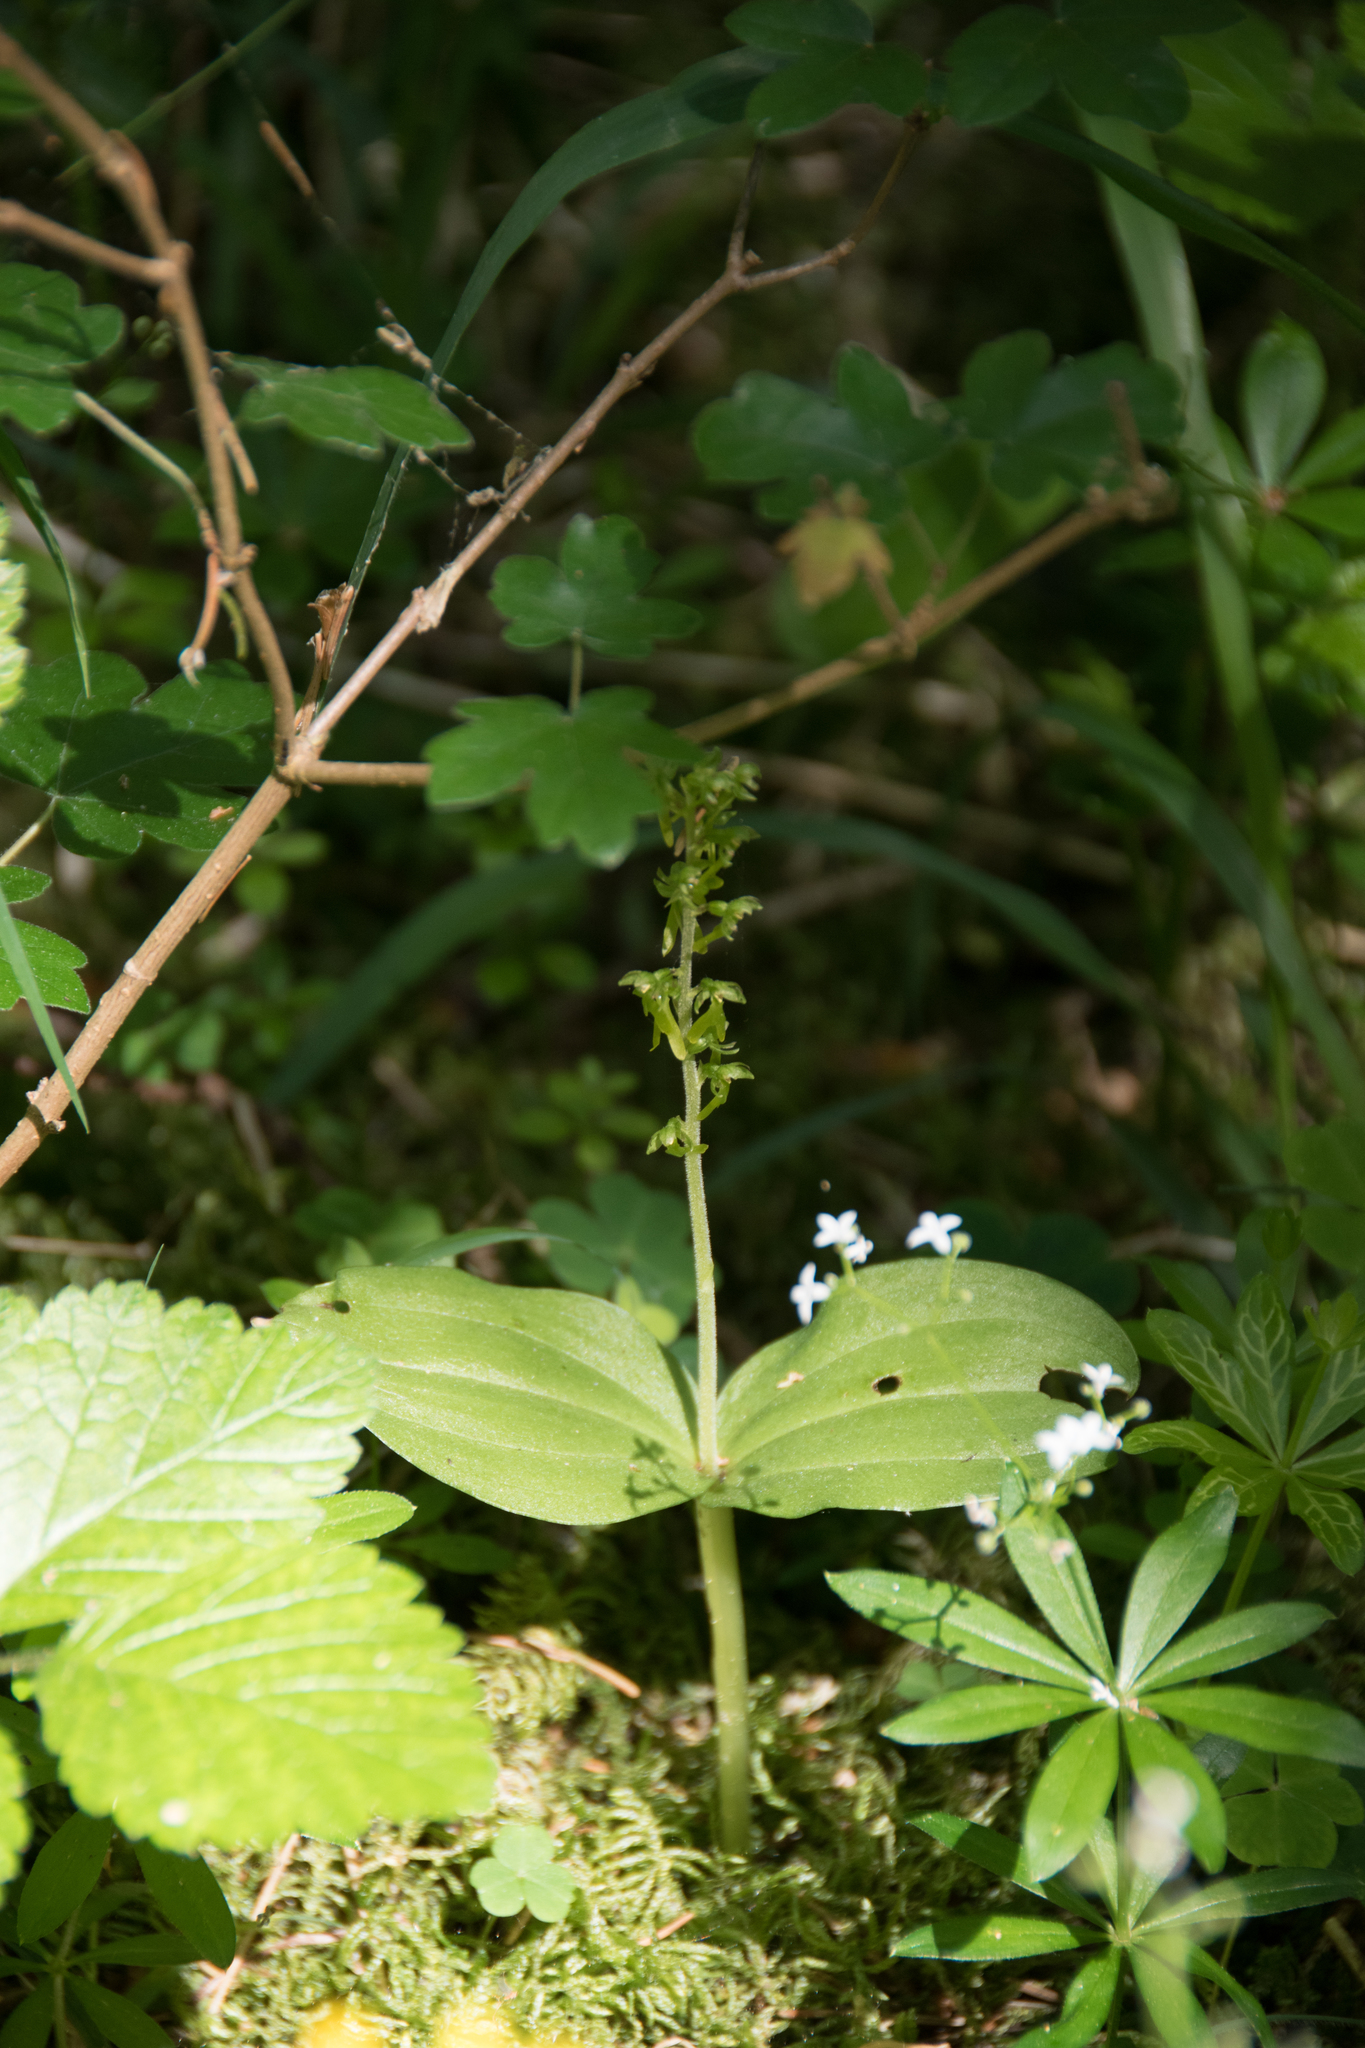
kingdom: Plantae
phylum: Tracheophyta
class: Liliopsida
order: Asparagales
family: Orchidaceae
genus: Neottia
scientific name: Neottia ovata
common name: Common twayblade
